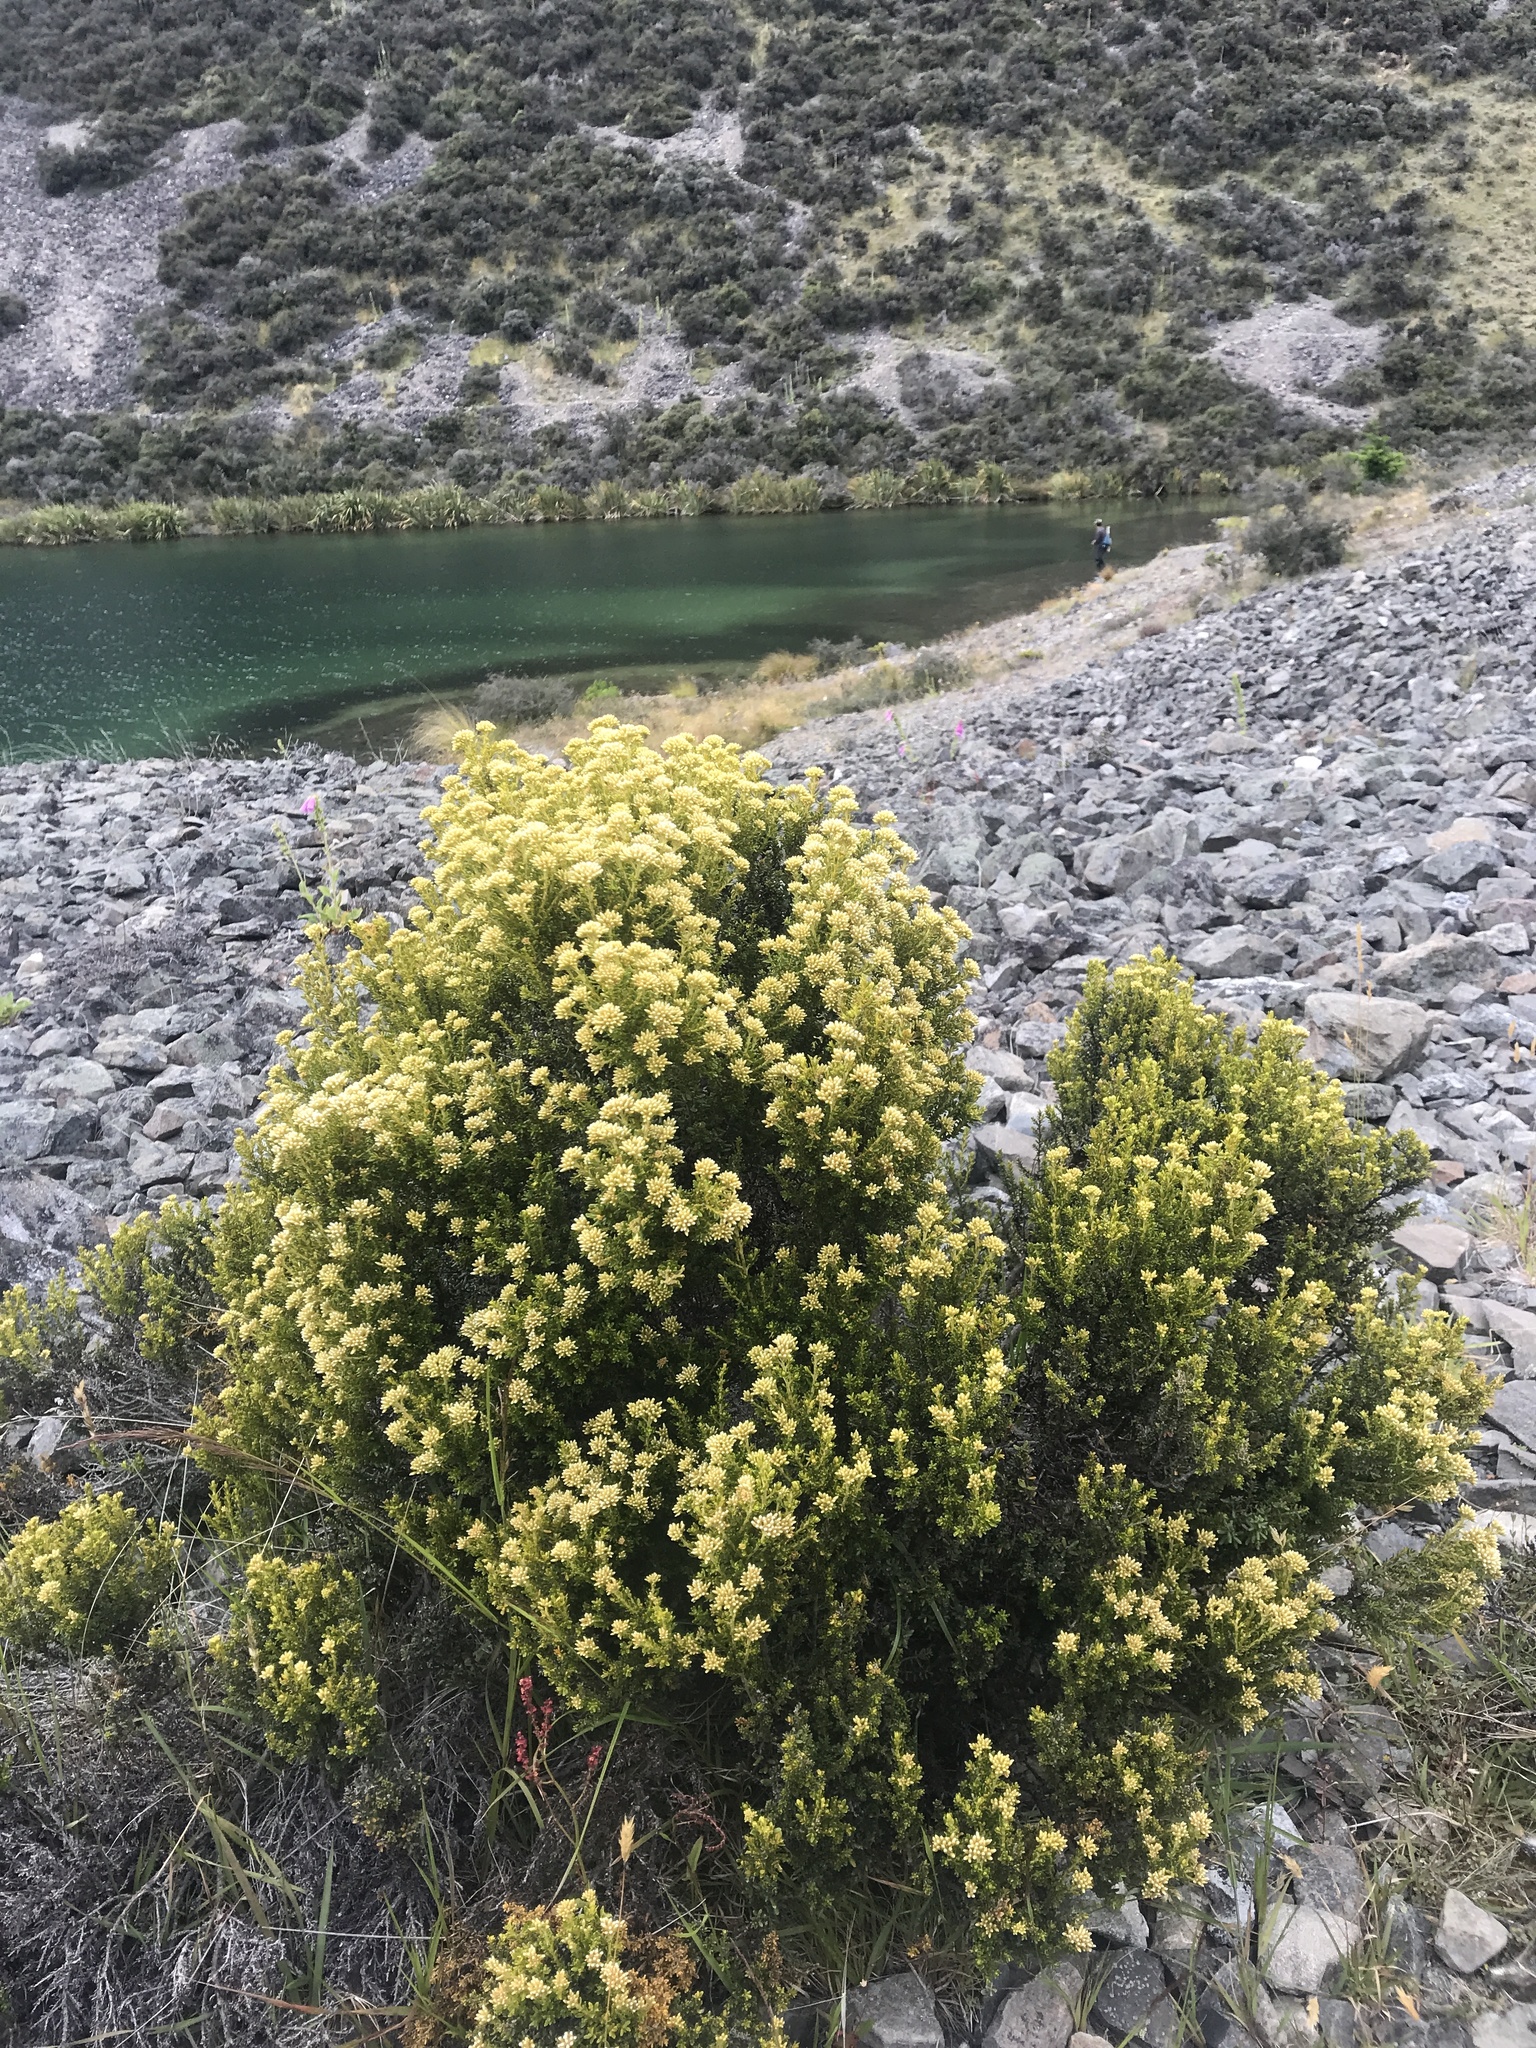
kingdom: Plantae
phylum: Tracheophyta
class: Magnoliopsida
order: Asterales
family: Asteraceae
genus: Ozothamnus
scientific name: Ozothamnus leptophyllus
